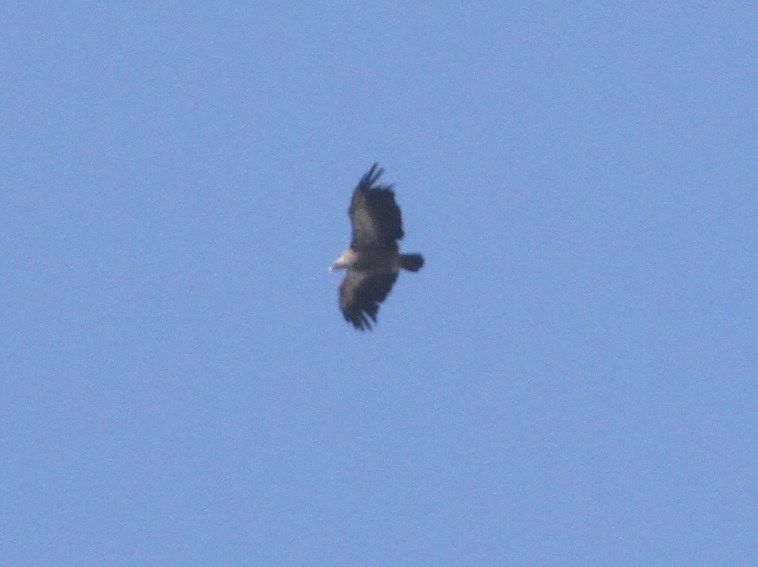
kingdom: Animalia
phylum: Chordata
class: Aves
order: Accipitriformes
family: Accipitridae
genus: Gyps
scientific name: Gyps fulvus
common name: Griffon vulture
